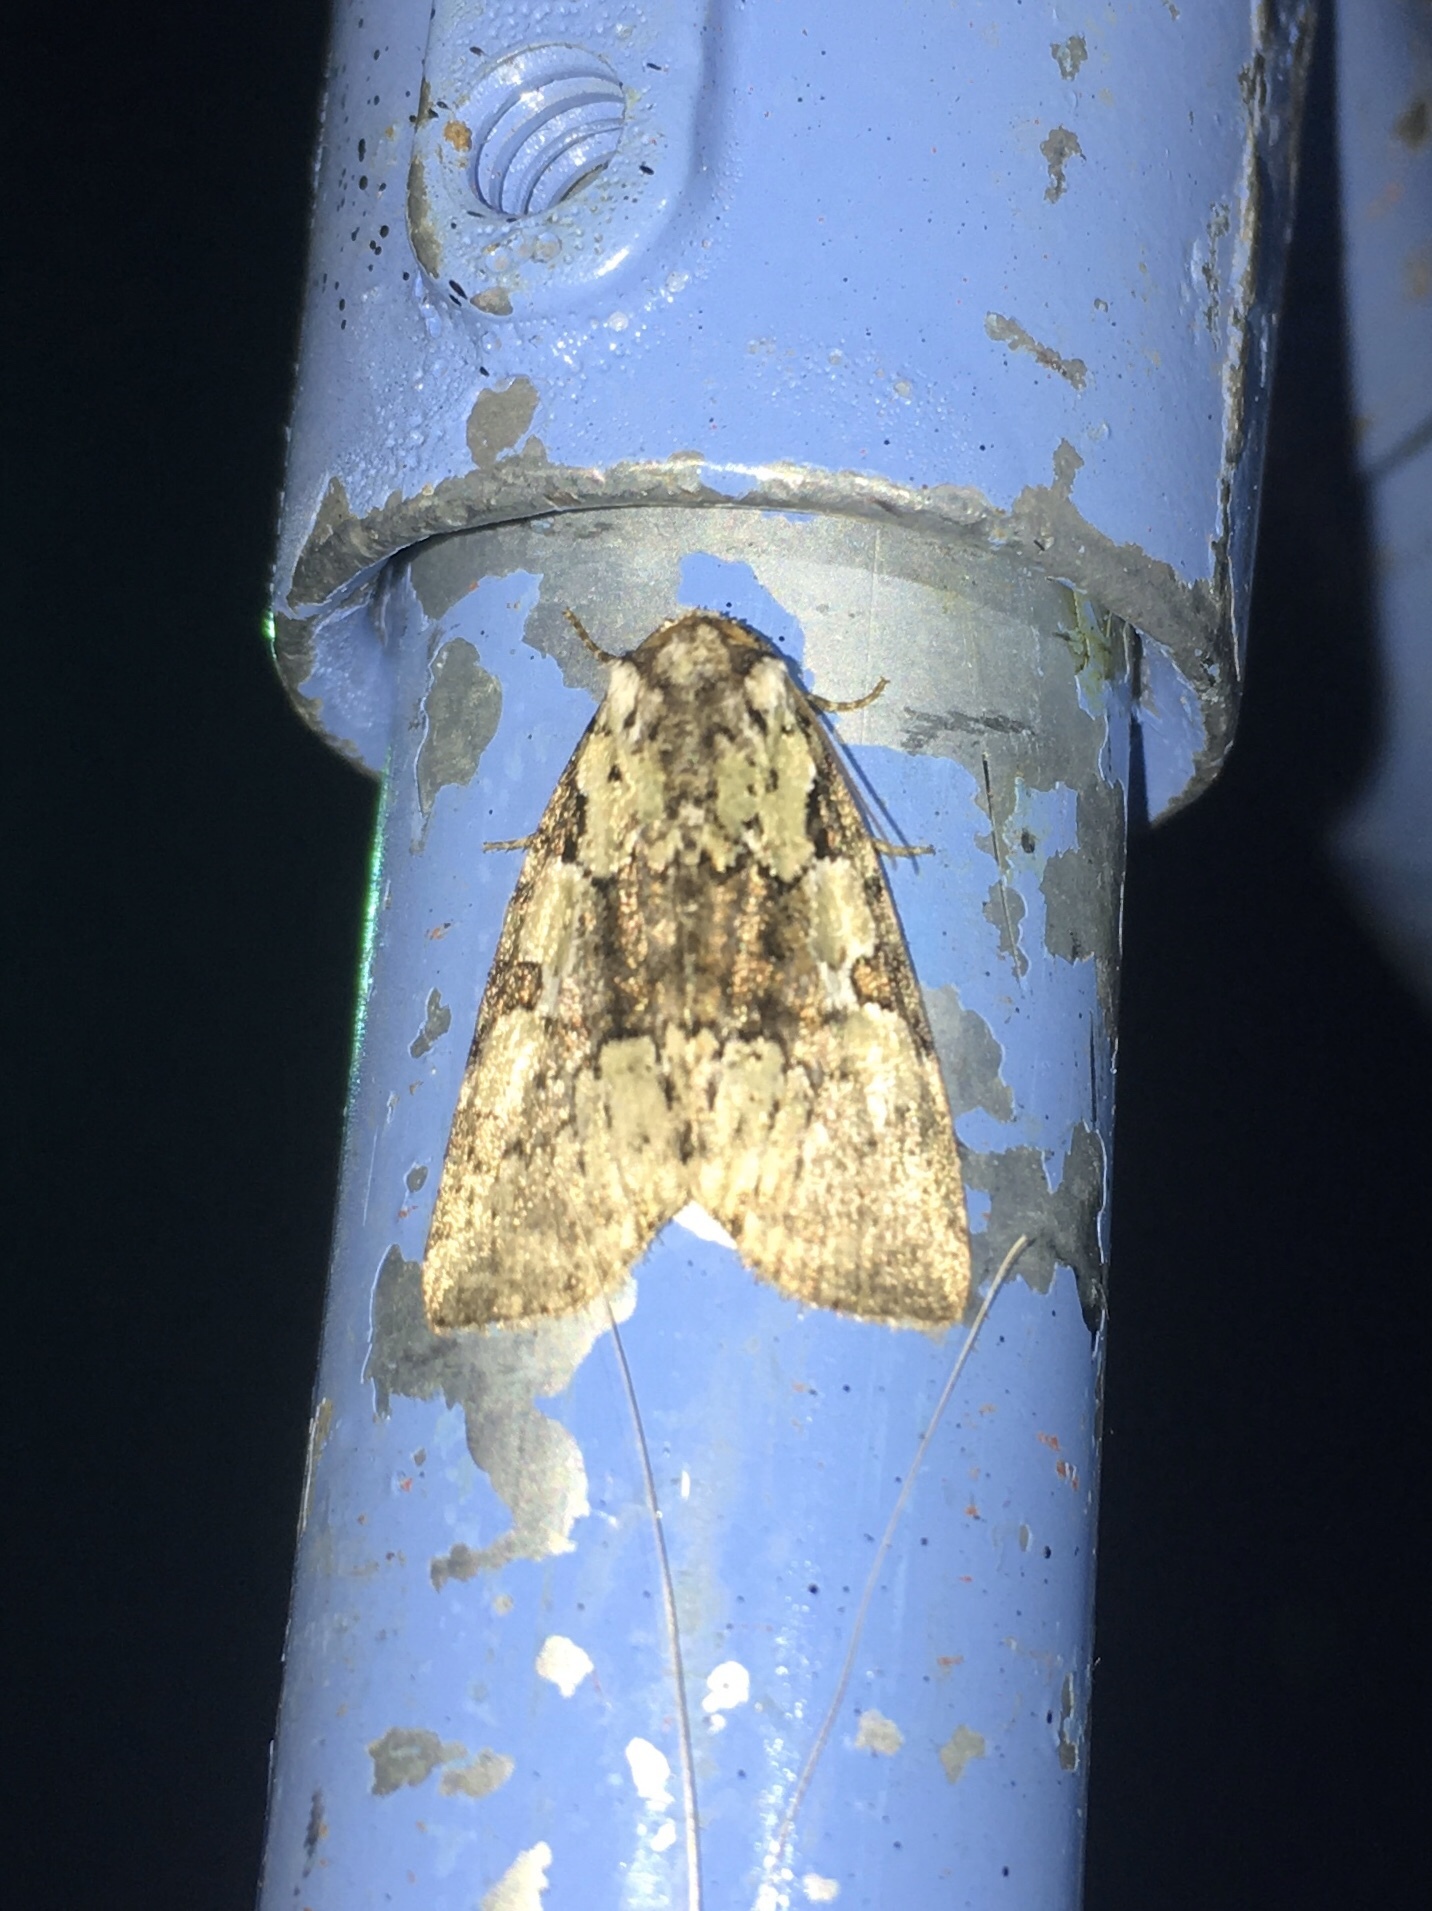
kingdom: Animalia
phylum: Arthropoda
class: Insecta
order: Lepidoptera
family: Noctuidae
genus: Leuconycta
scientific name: Leuconycta lepidula
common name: Marbled-green leuconycta moth
